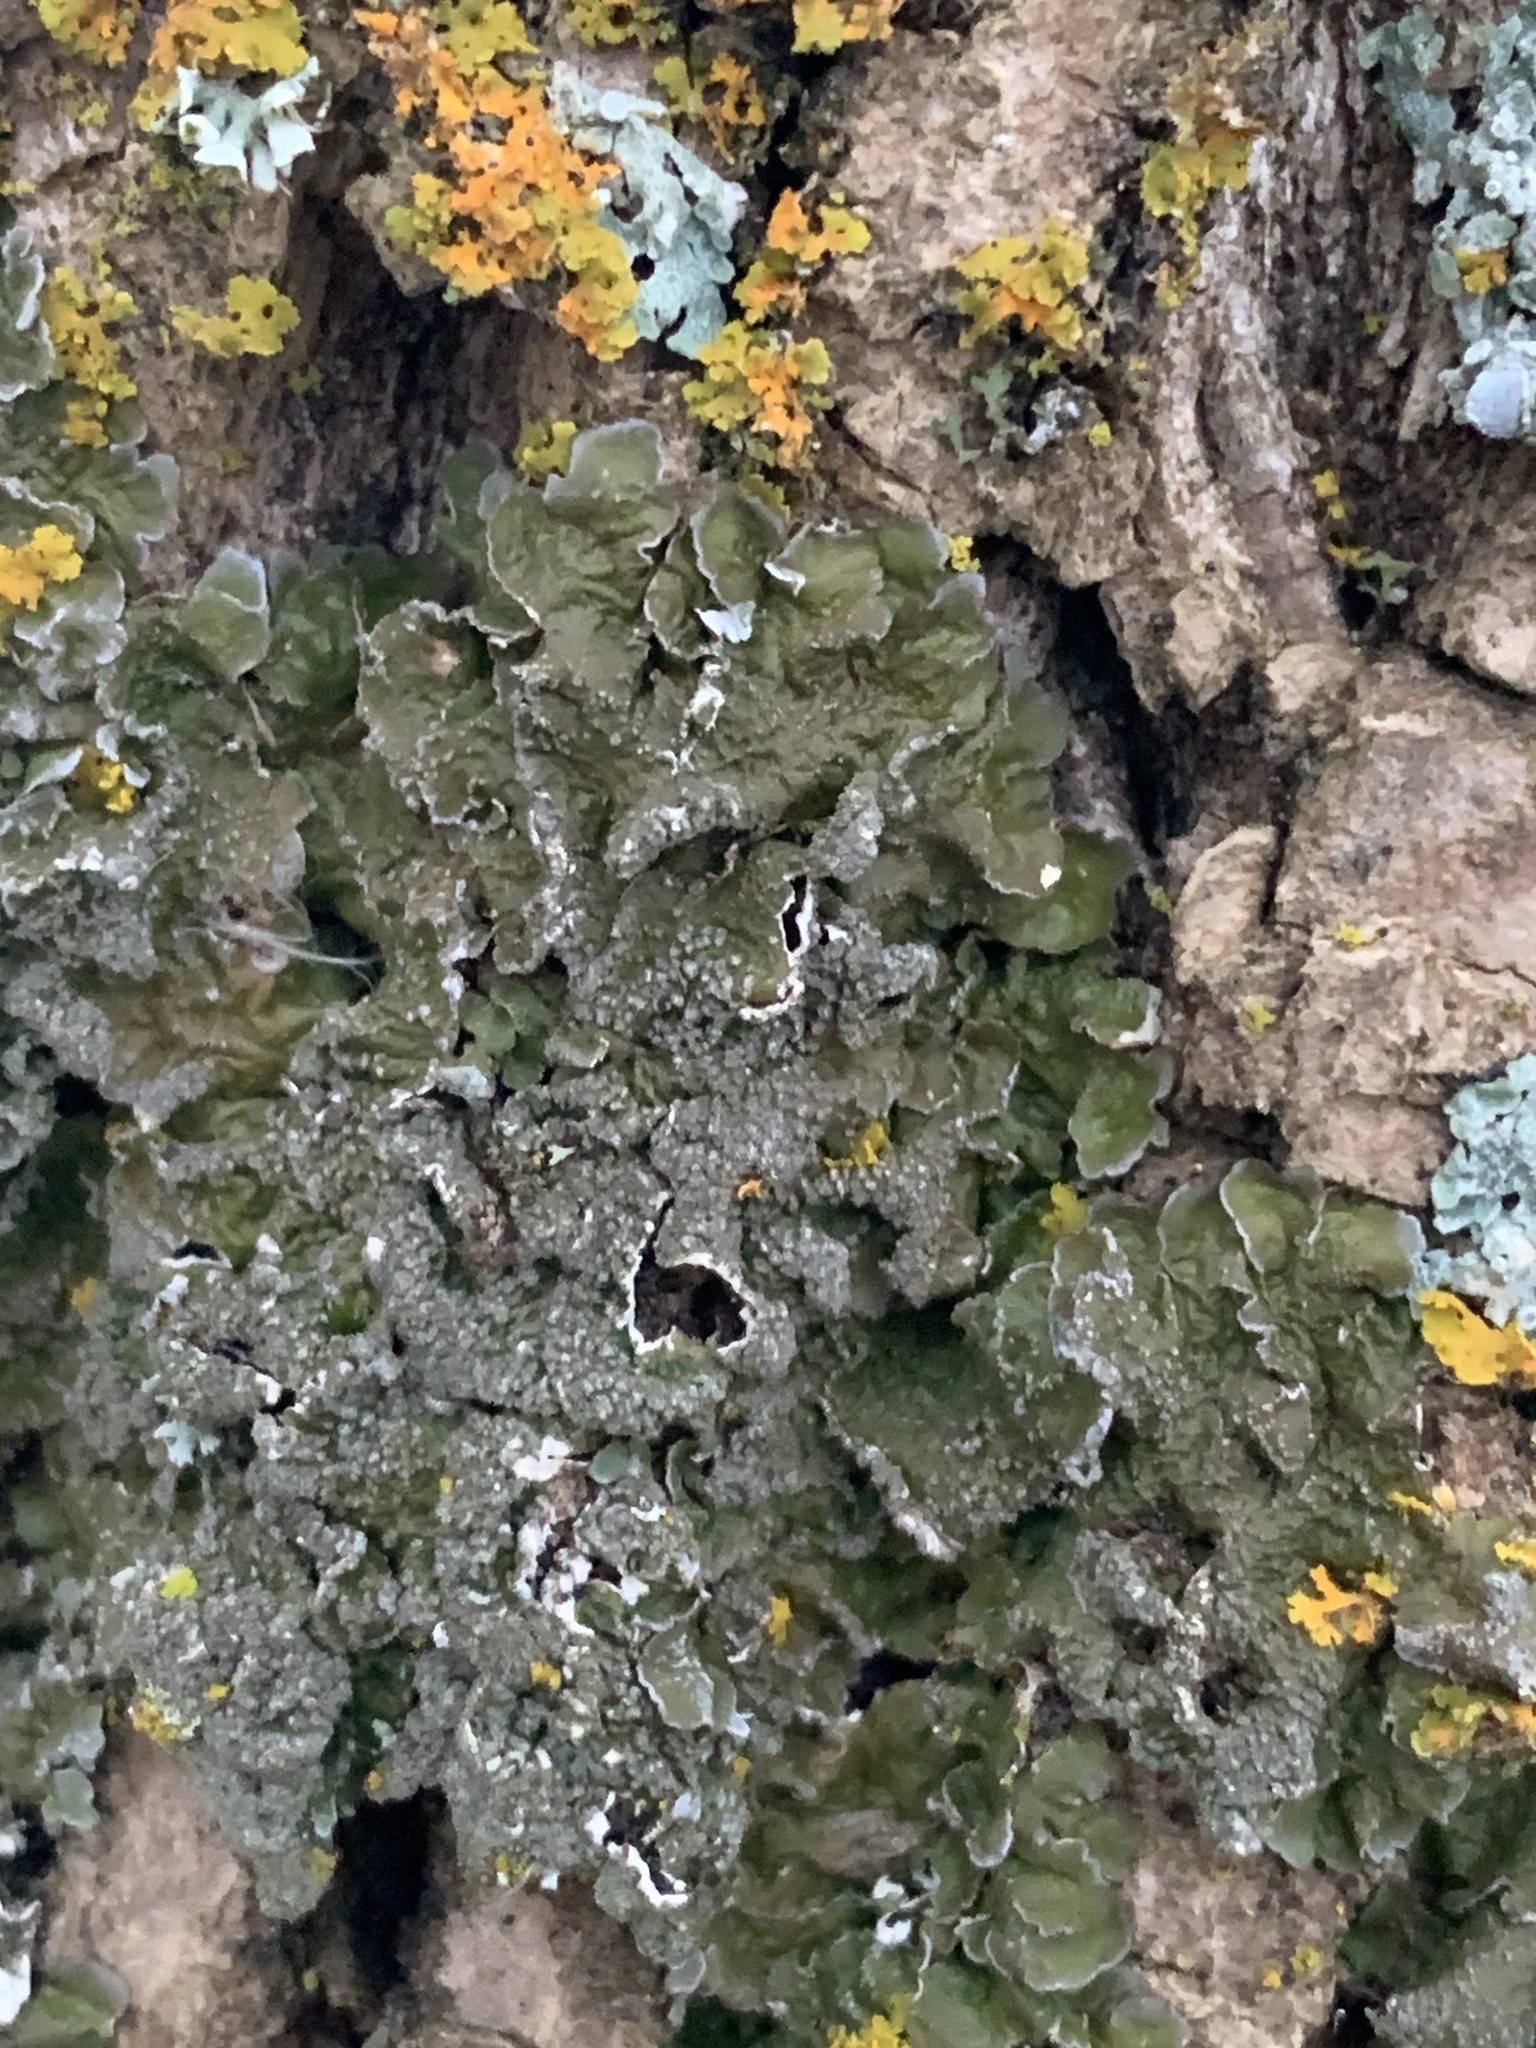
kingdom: Fungi
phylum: Ascomycota
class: Lecanoromycetes
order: Lecanorales
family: Parmeliaceae
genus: Melanelixia
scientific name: Melanelixia subargentifera
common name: Whiskered camouflage lichen
